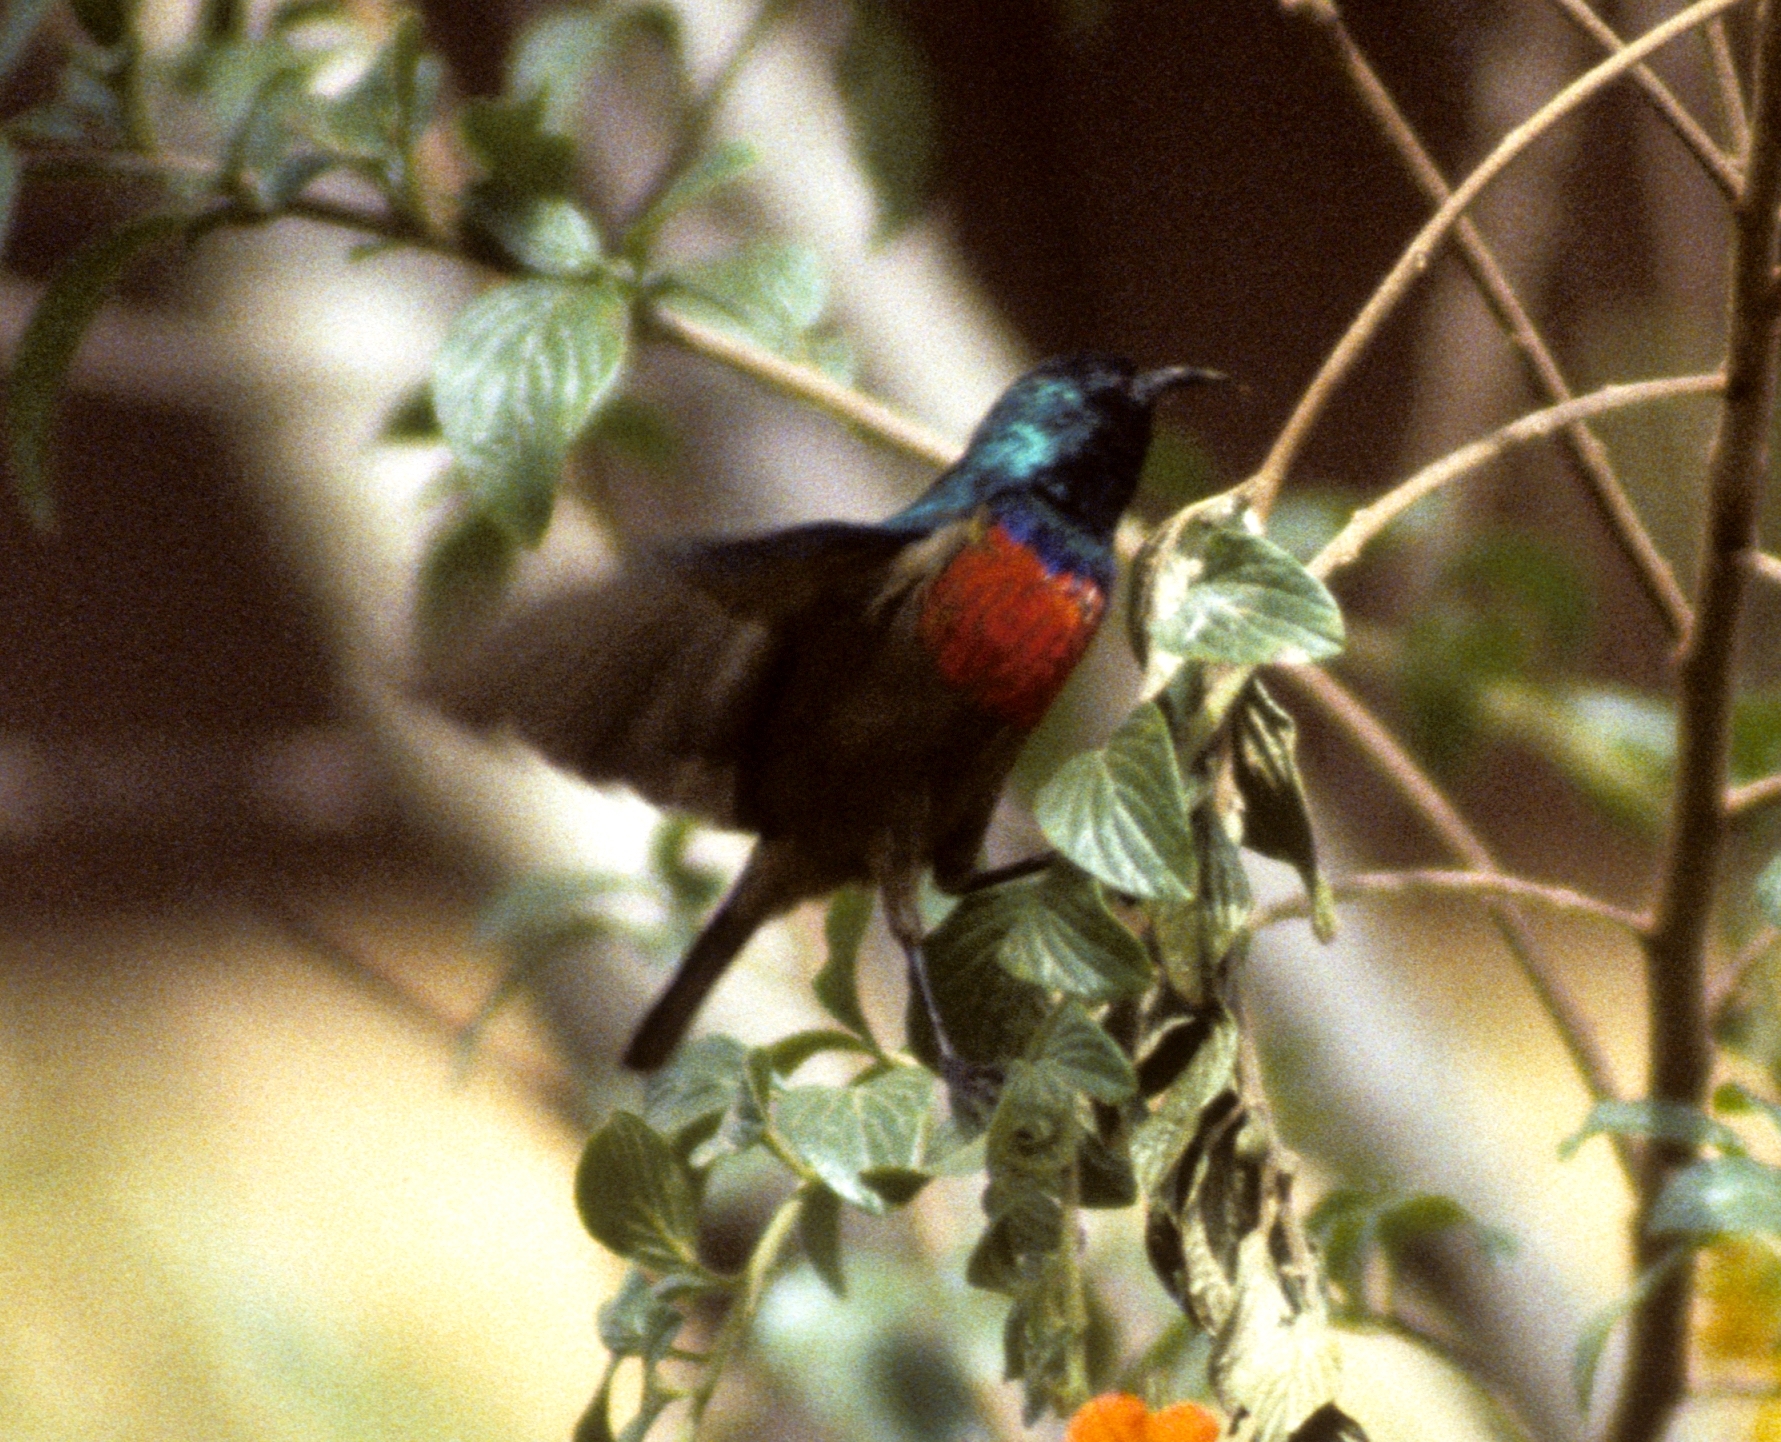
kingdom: Animalia
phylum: Chordata
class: Aves
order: Passeriformes
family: Nectariniidae
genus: Cinnyris
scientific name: Cinnyris reichenowi
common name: Northern double-collared sunbird
